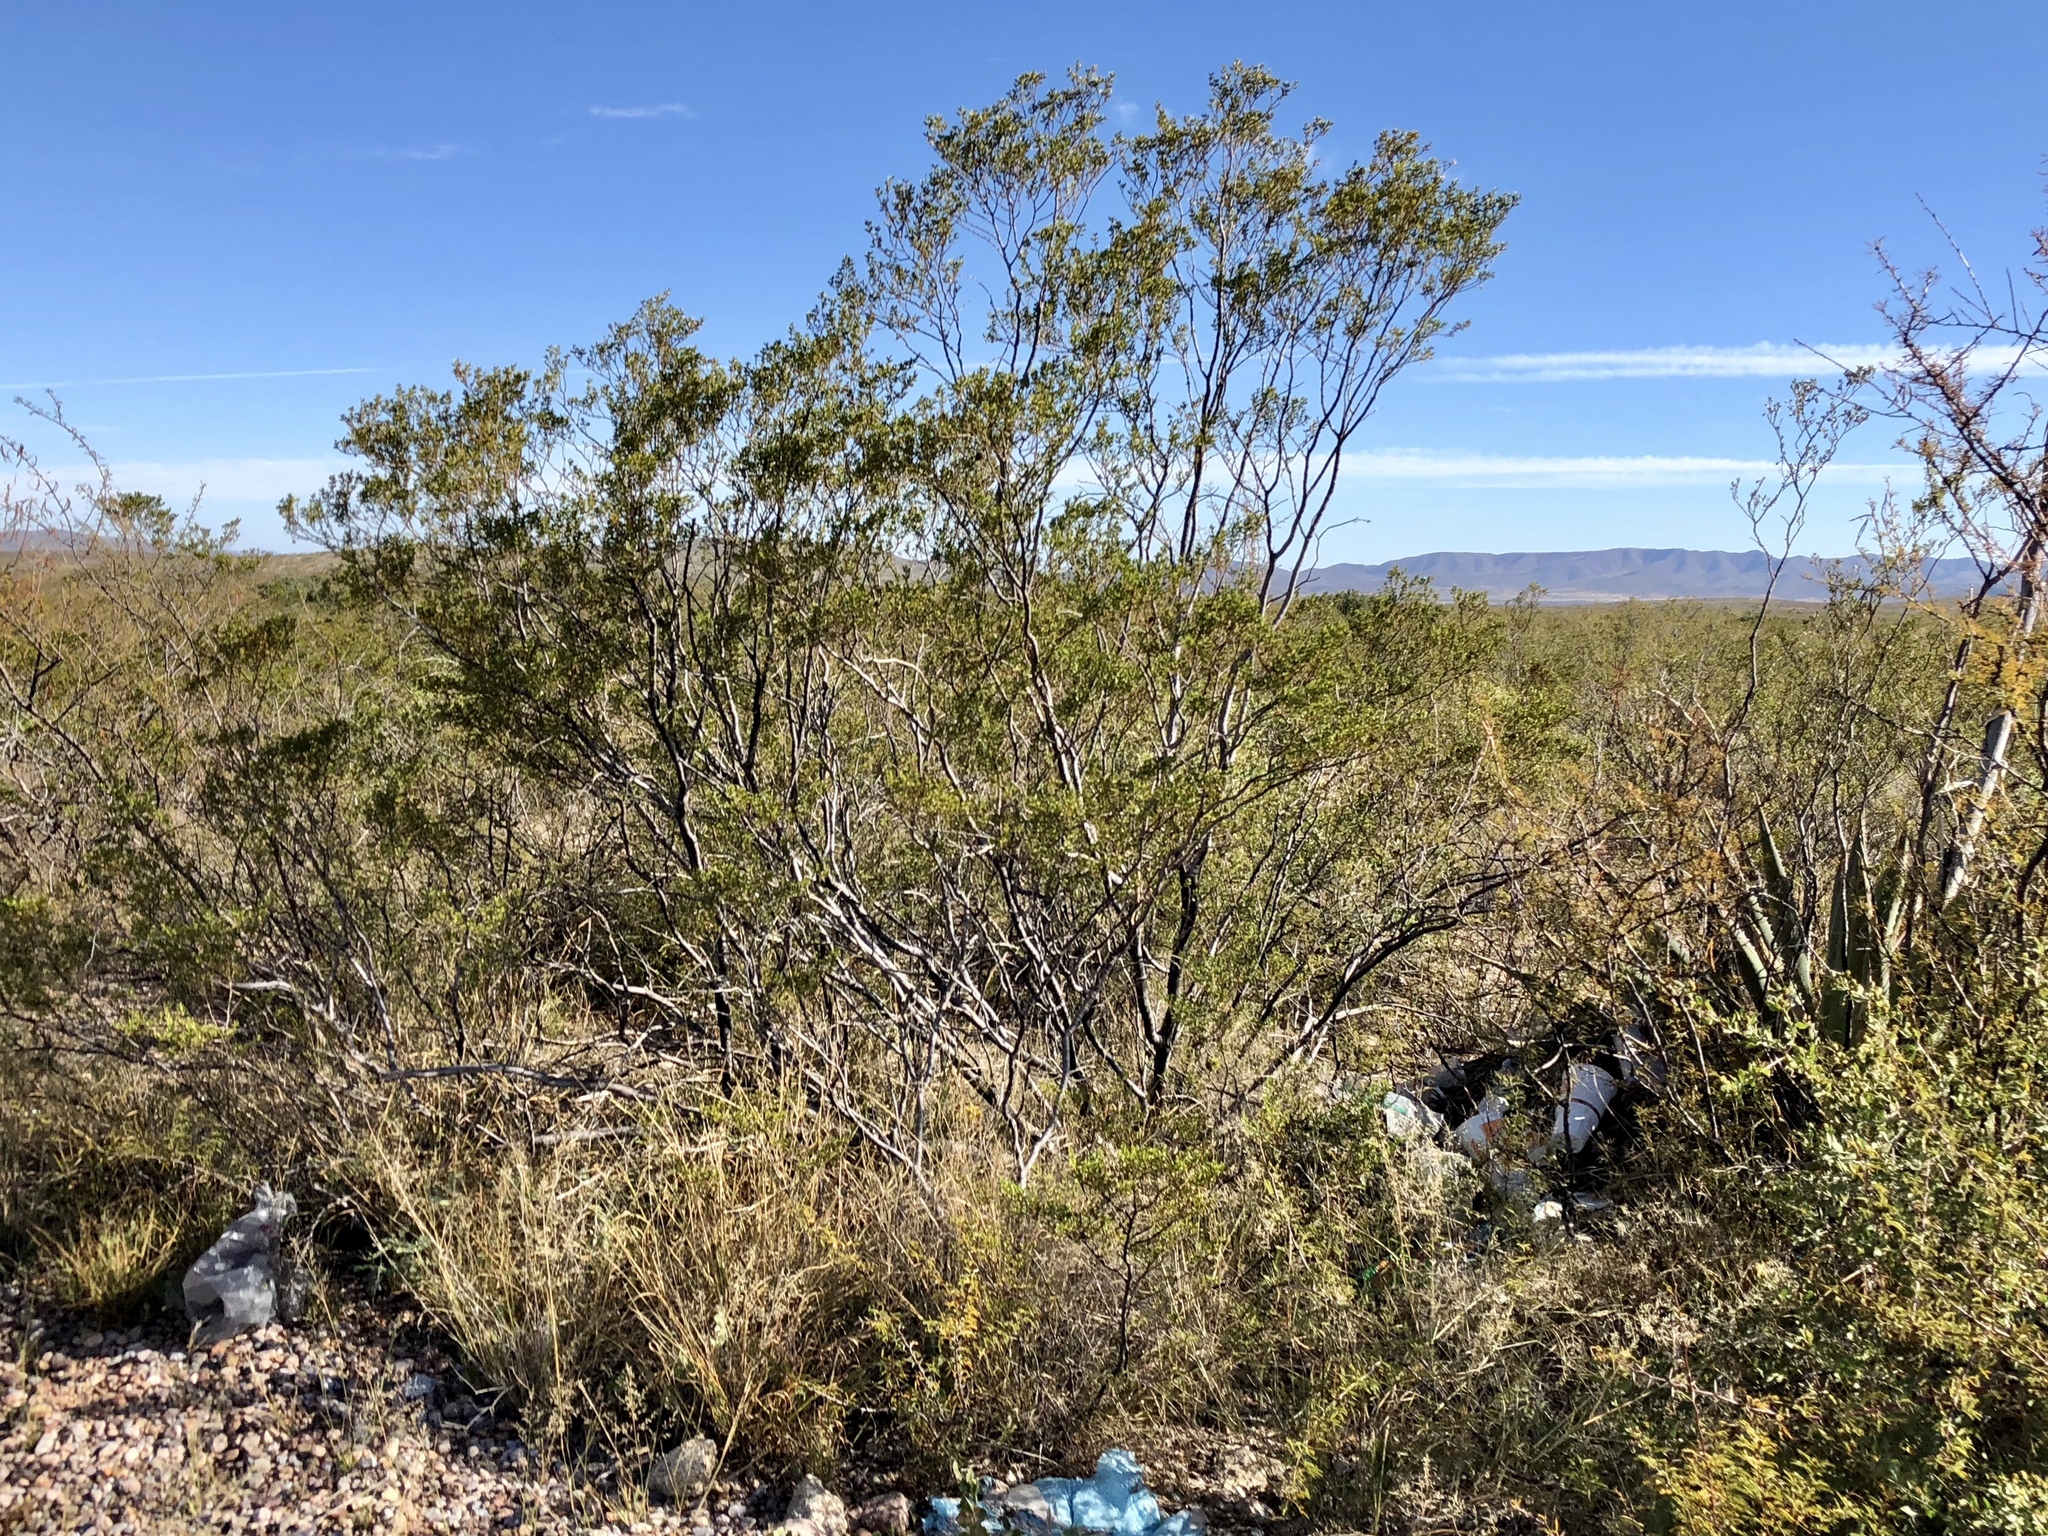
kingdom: Plantae
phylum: Tracheophyta
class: Magnoliopsida
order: Zygophyllales
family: Zygophyllaceae
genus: Larrea
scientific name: Larrea tridentata
